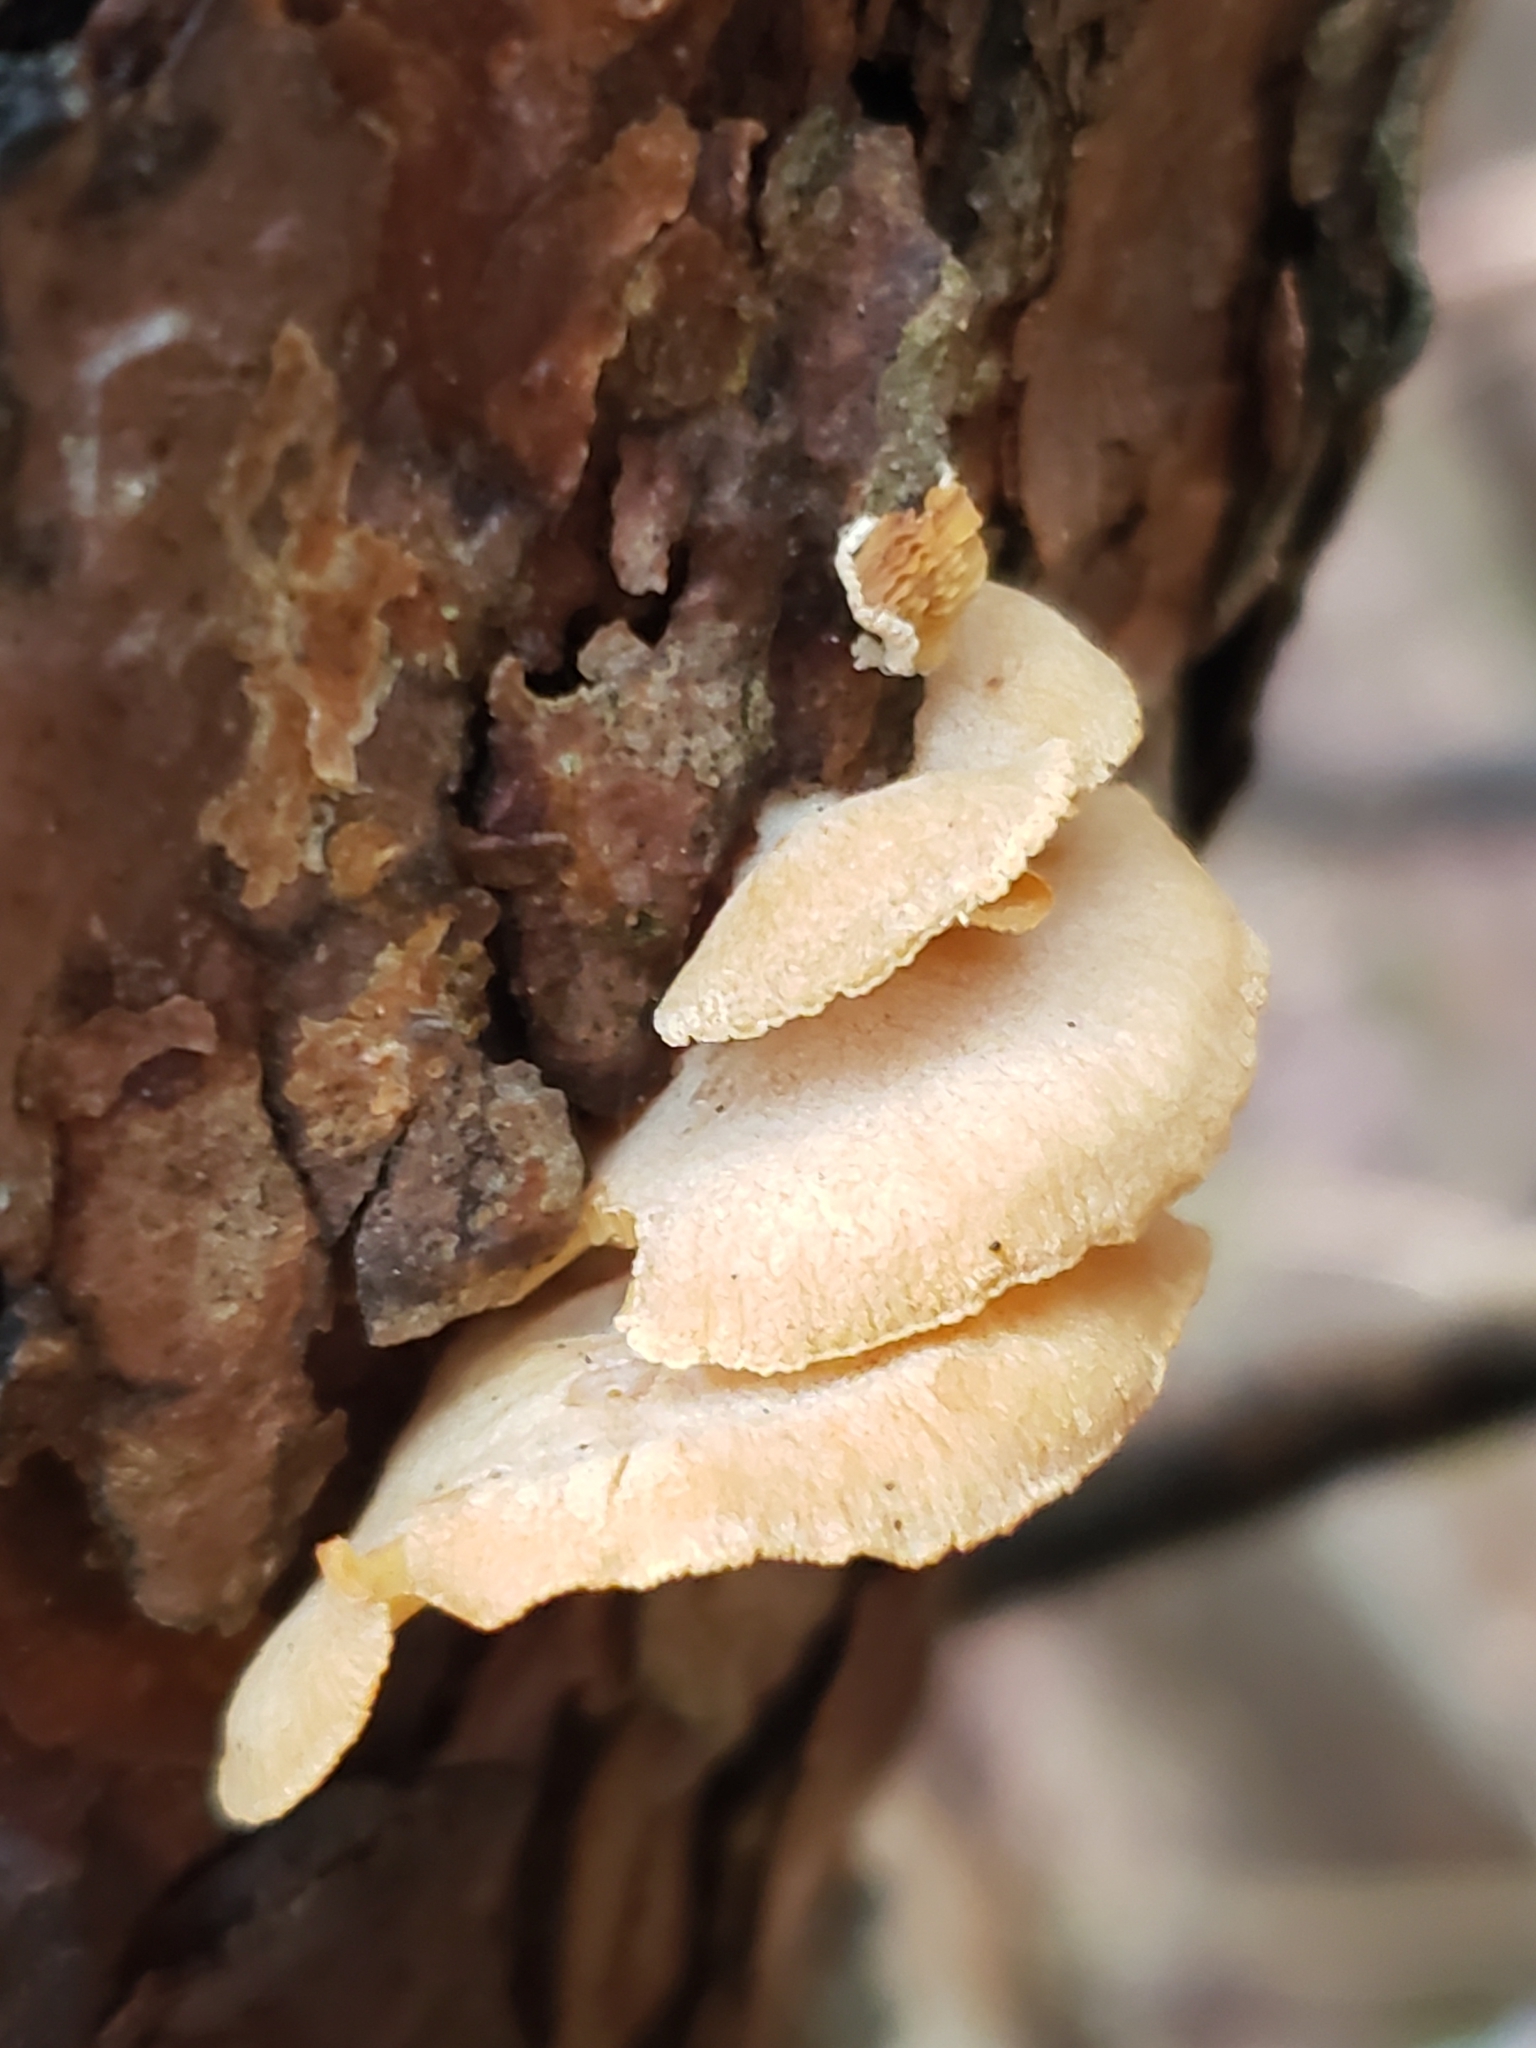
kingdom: Fungi
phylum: Basidiomycota
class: Agaricomycetes
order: Agaricales
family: Mycenaceae
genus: Panellus
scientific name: Panellus stipticus
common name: Bitter oysterling
